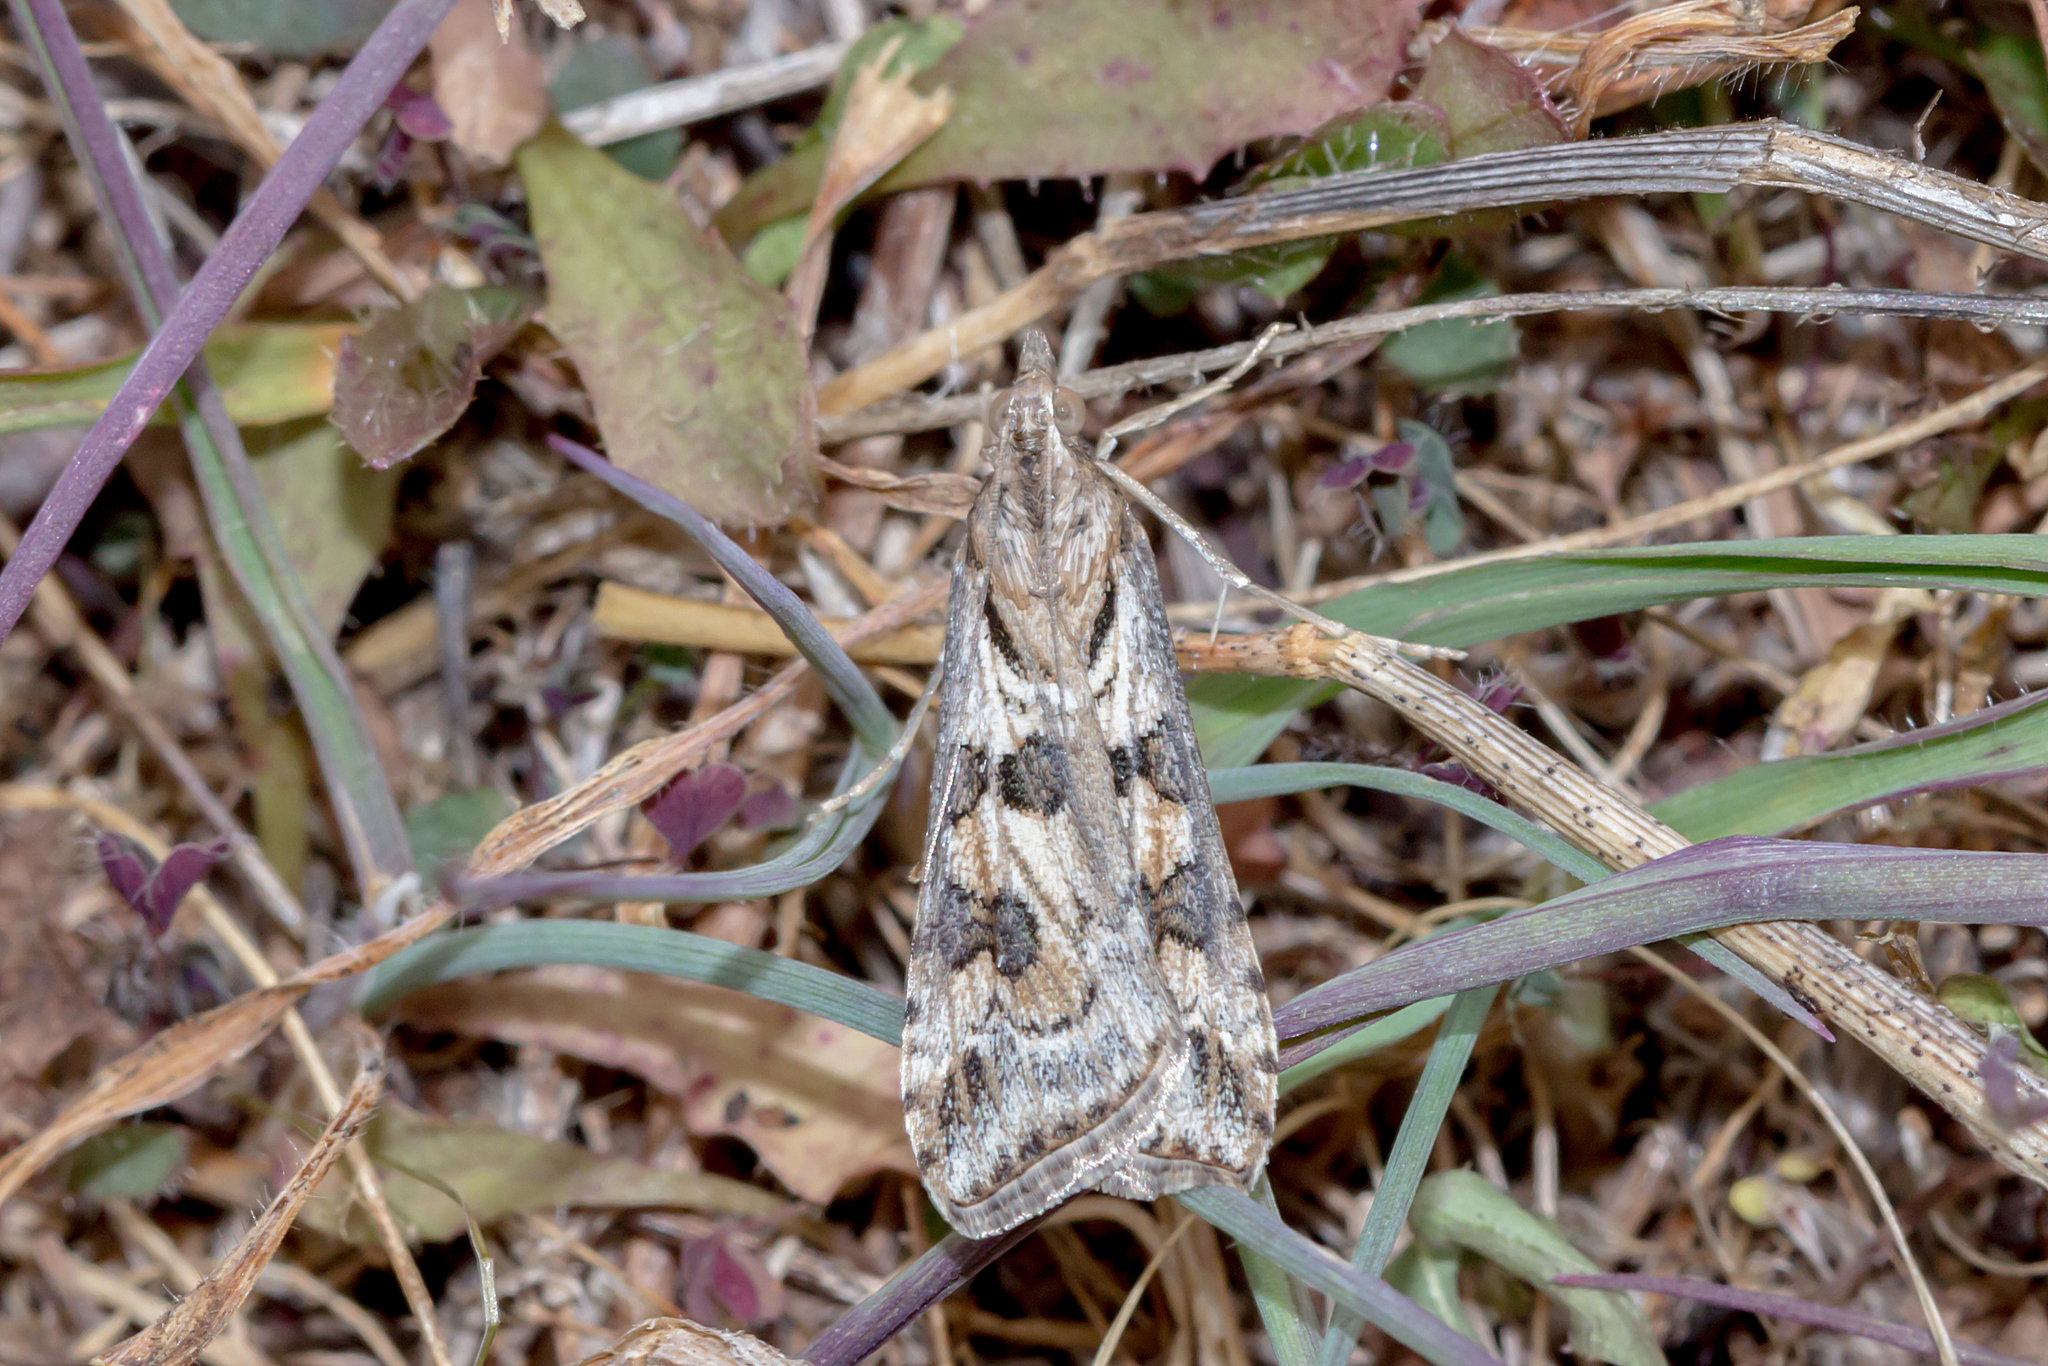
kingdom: Animalia
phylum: Arthropoda
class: Insecta
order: Lepidoptera
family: Crambidae
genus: Nomophila
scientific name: Nomophila corticalis
